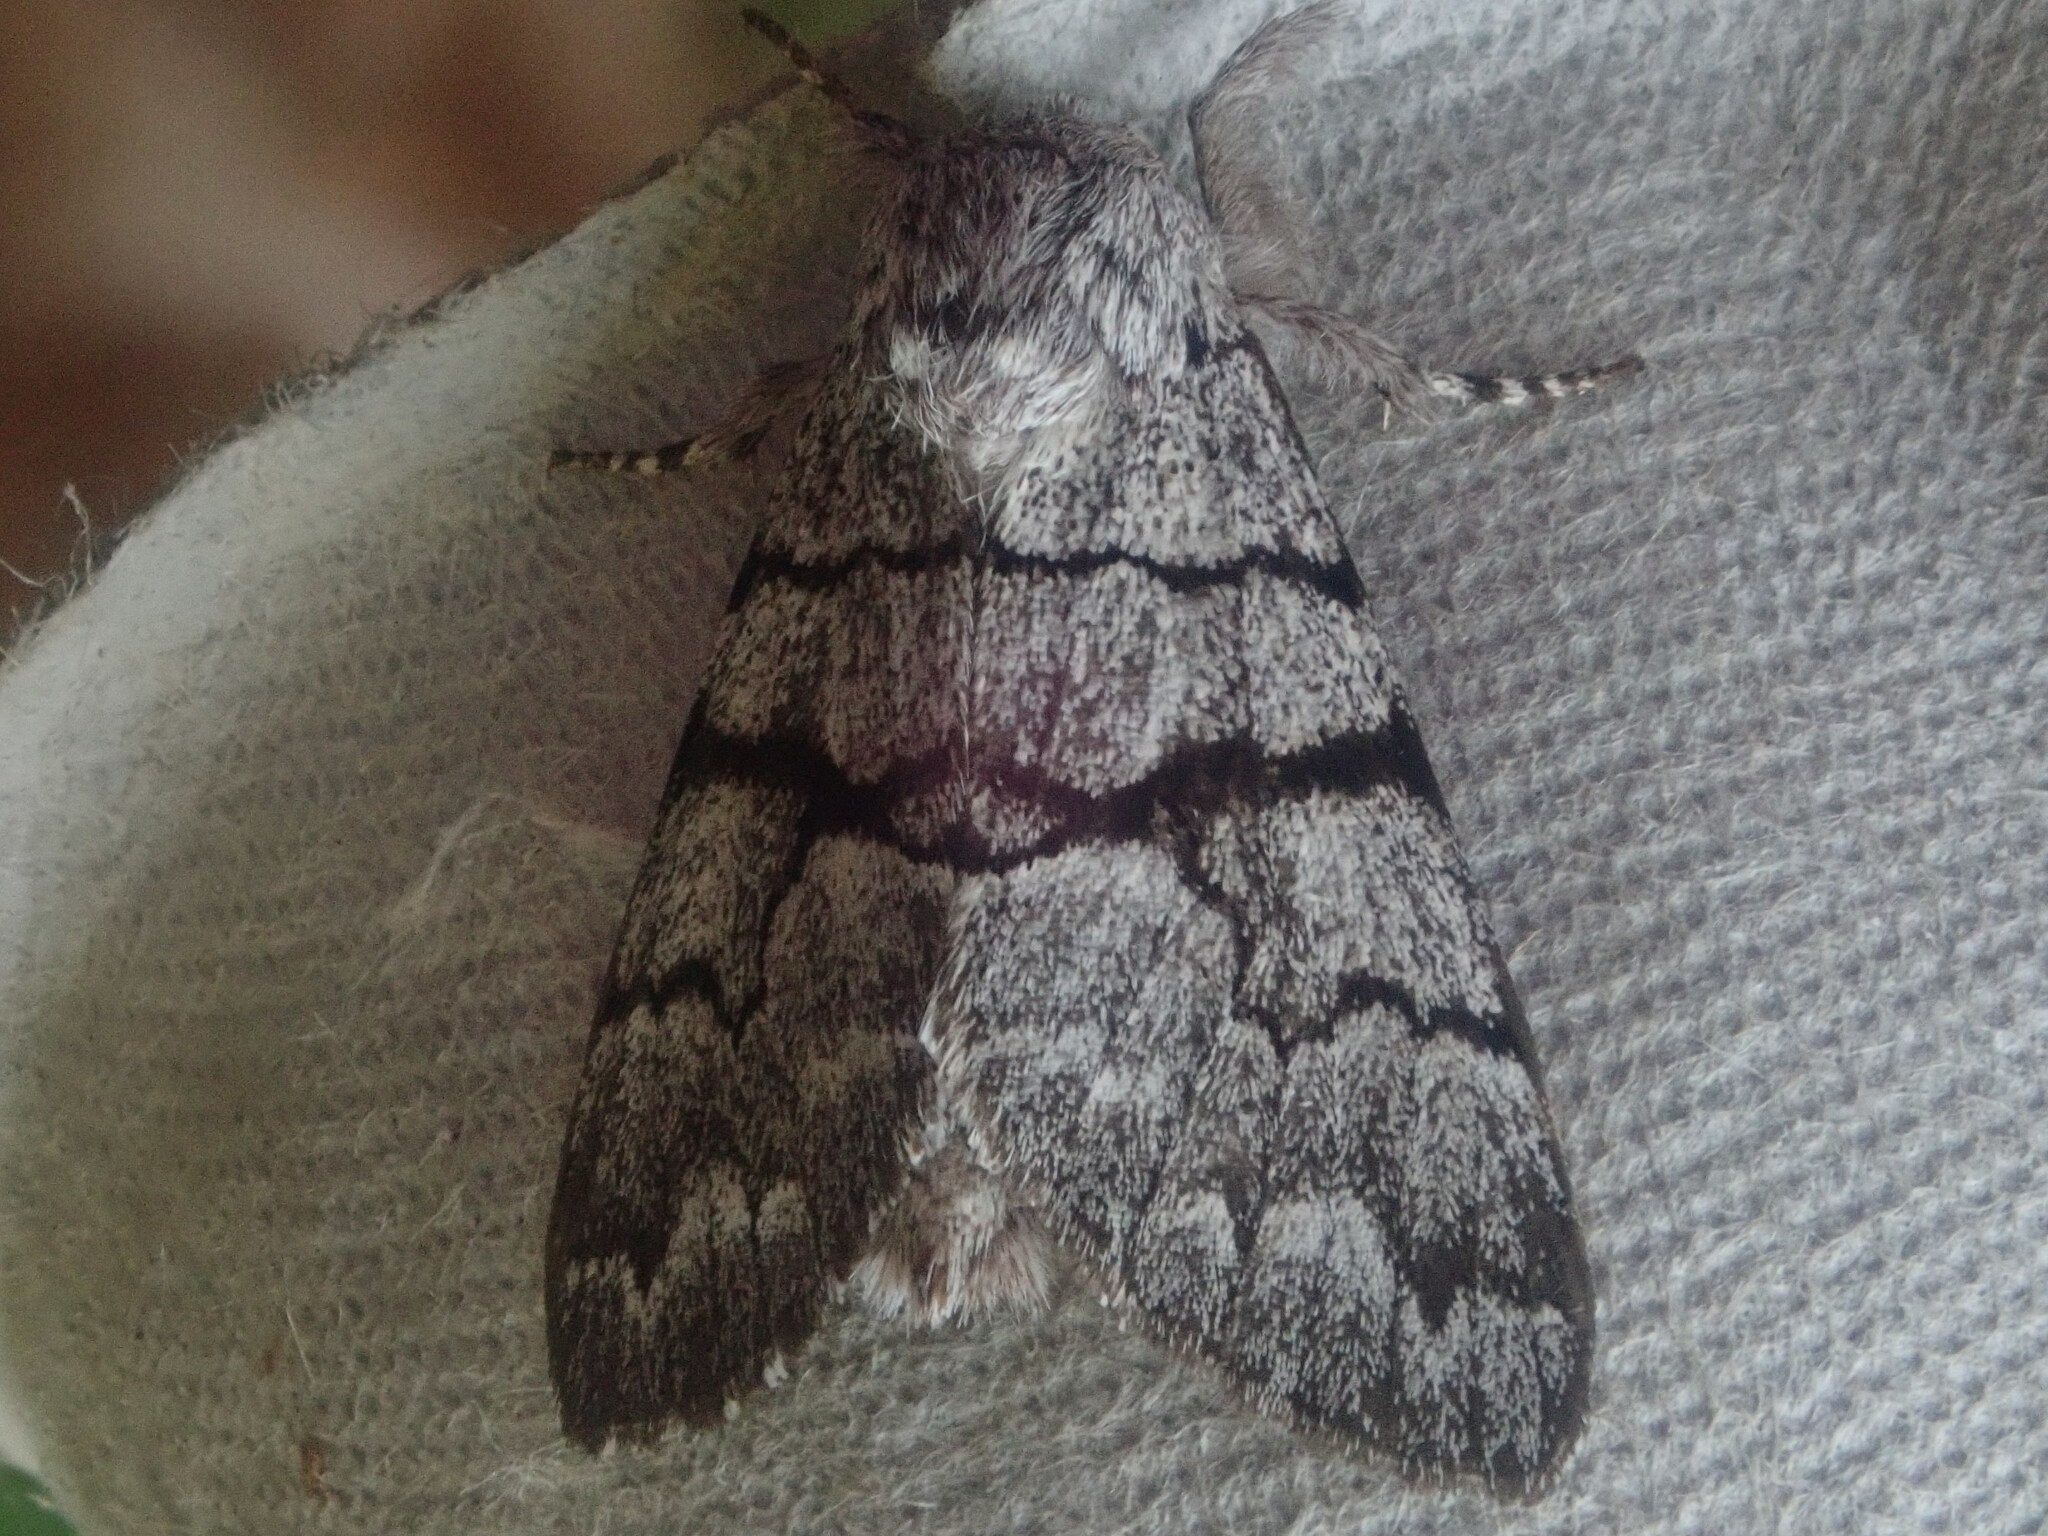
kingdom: Animalia
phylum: Arthropoda
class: Insecta
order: Lepidoptera
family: Noctuidae
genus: Panthea
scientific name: Panthea furcilla
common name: Eastern panthea moth
